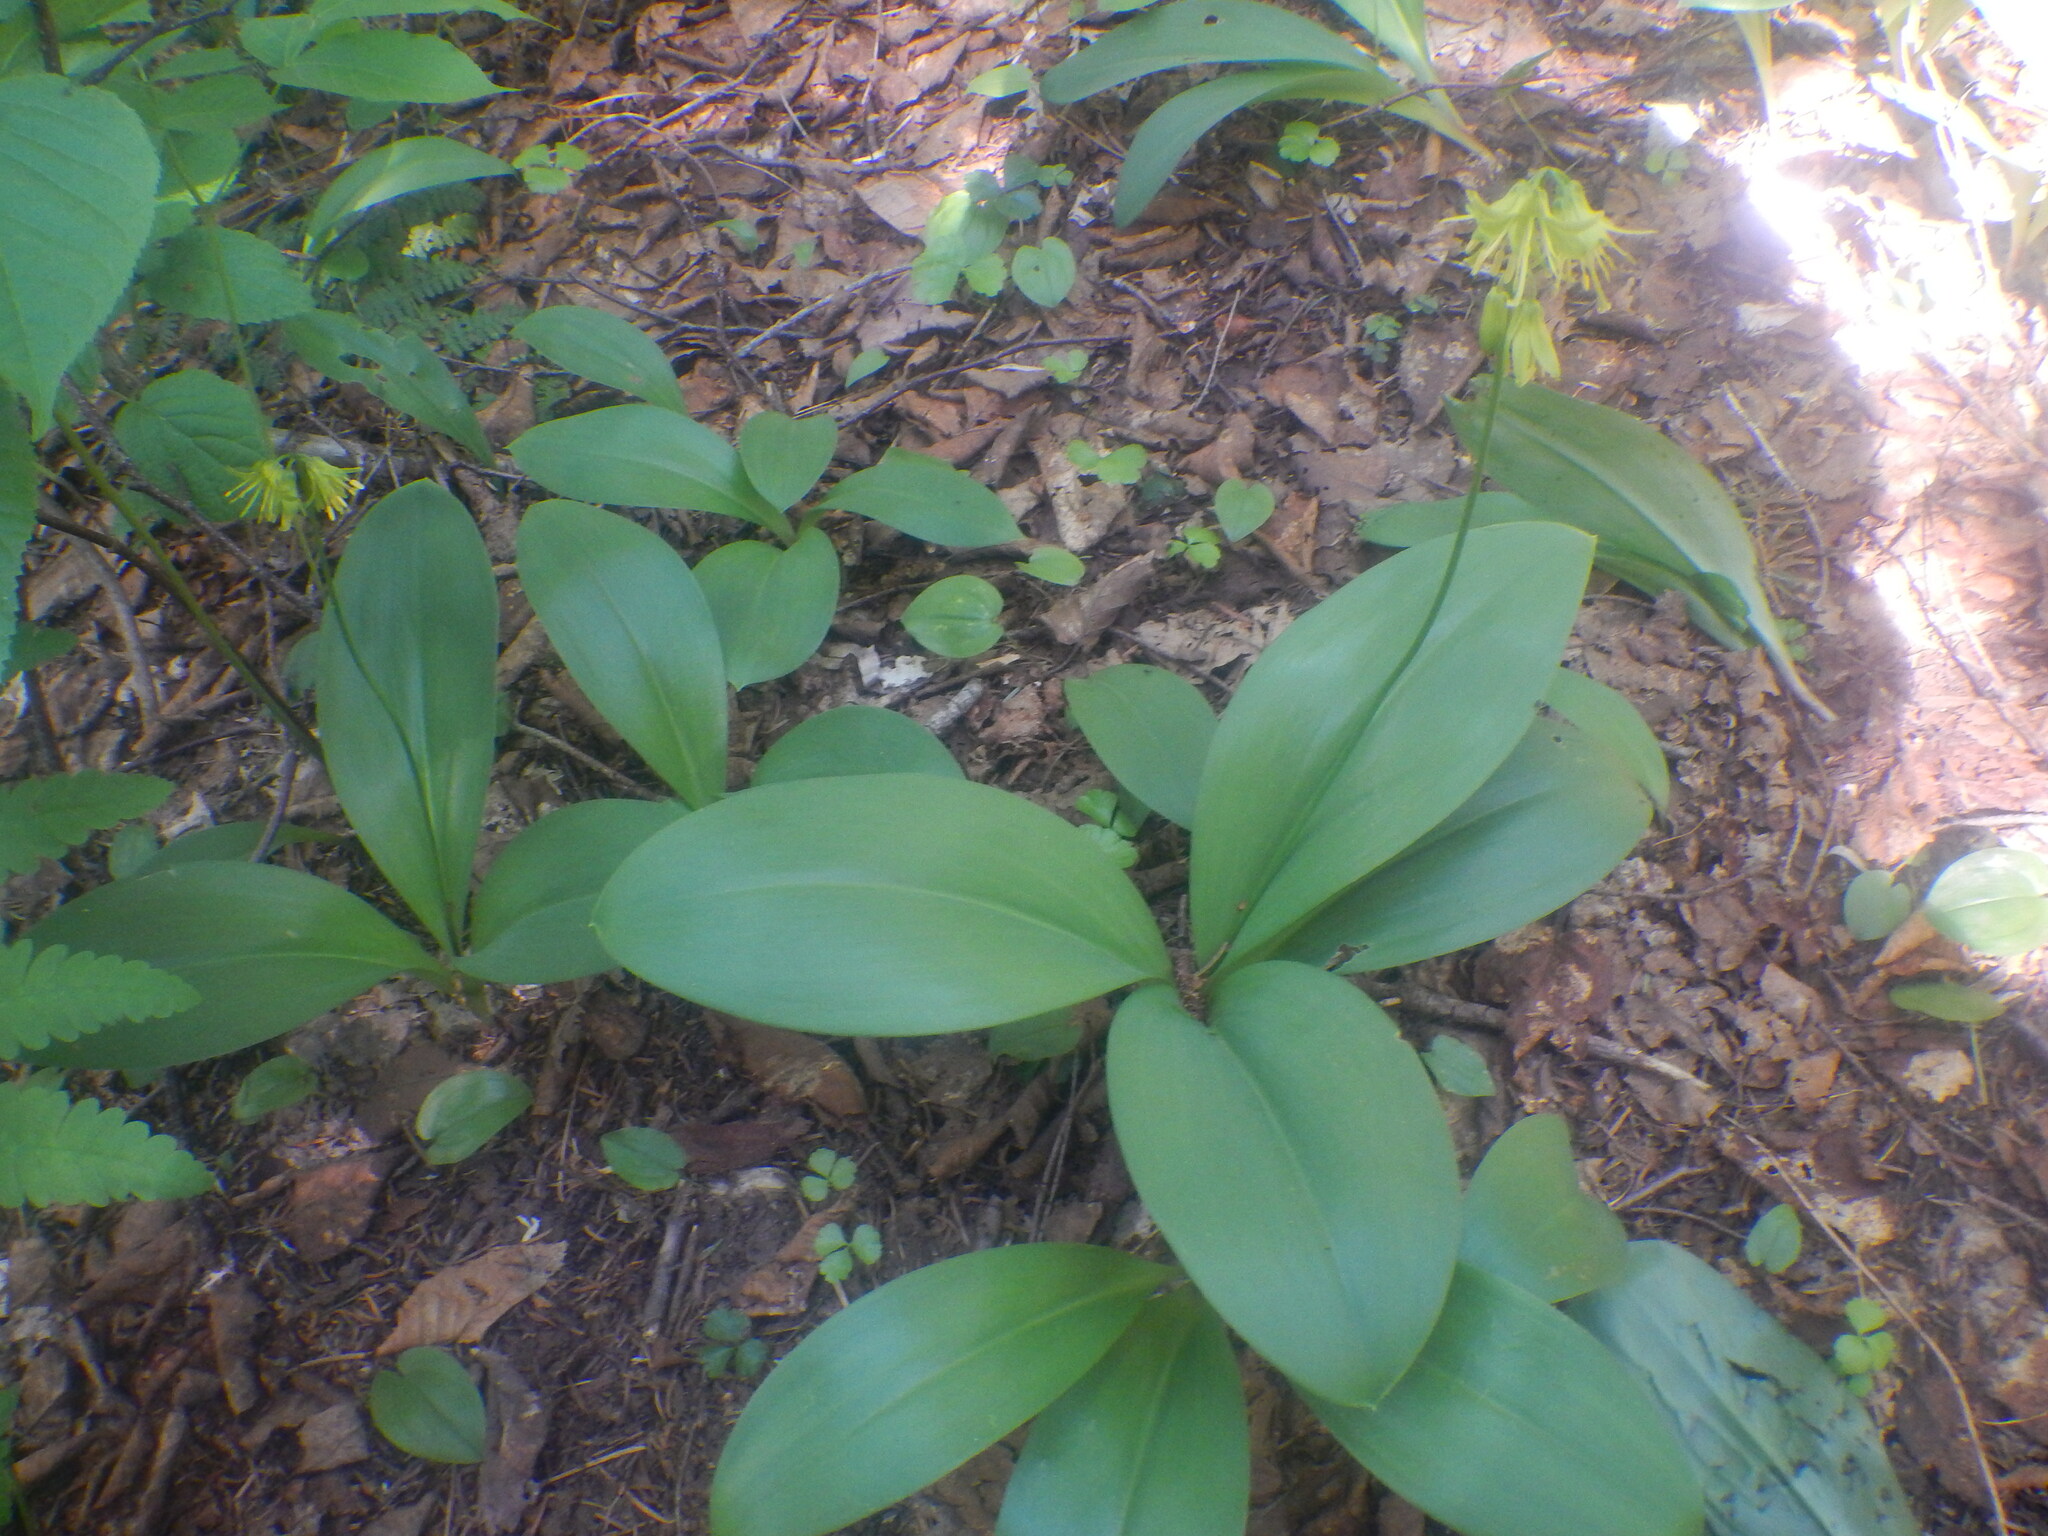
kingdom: Plantae
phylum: Tracheophyta
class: Liliopsida
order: Liliales
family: Liliaceae
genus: Clintonia
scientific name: Clintonia borealis
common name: Yellow clintonia
